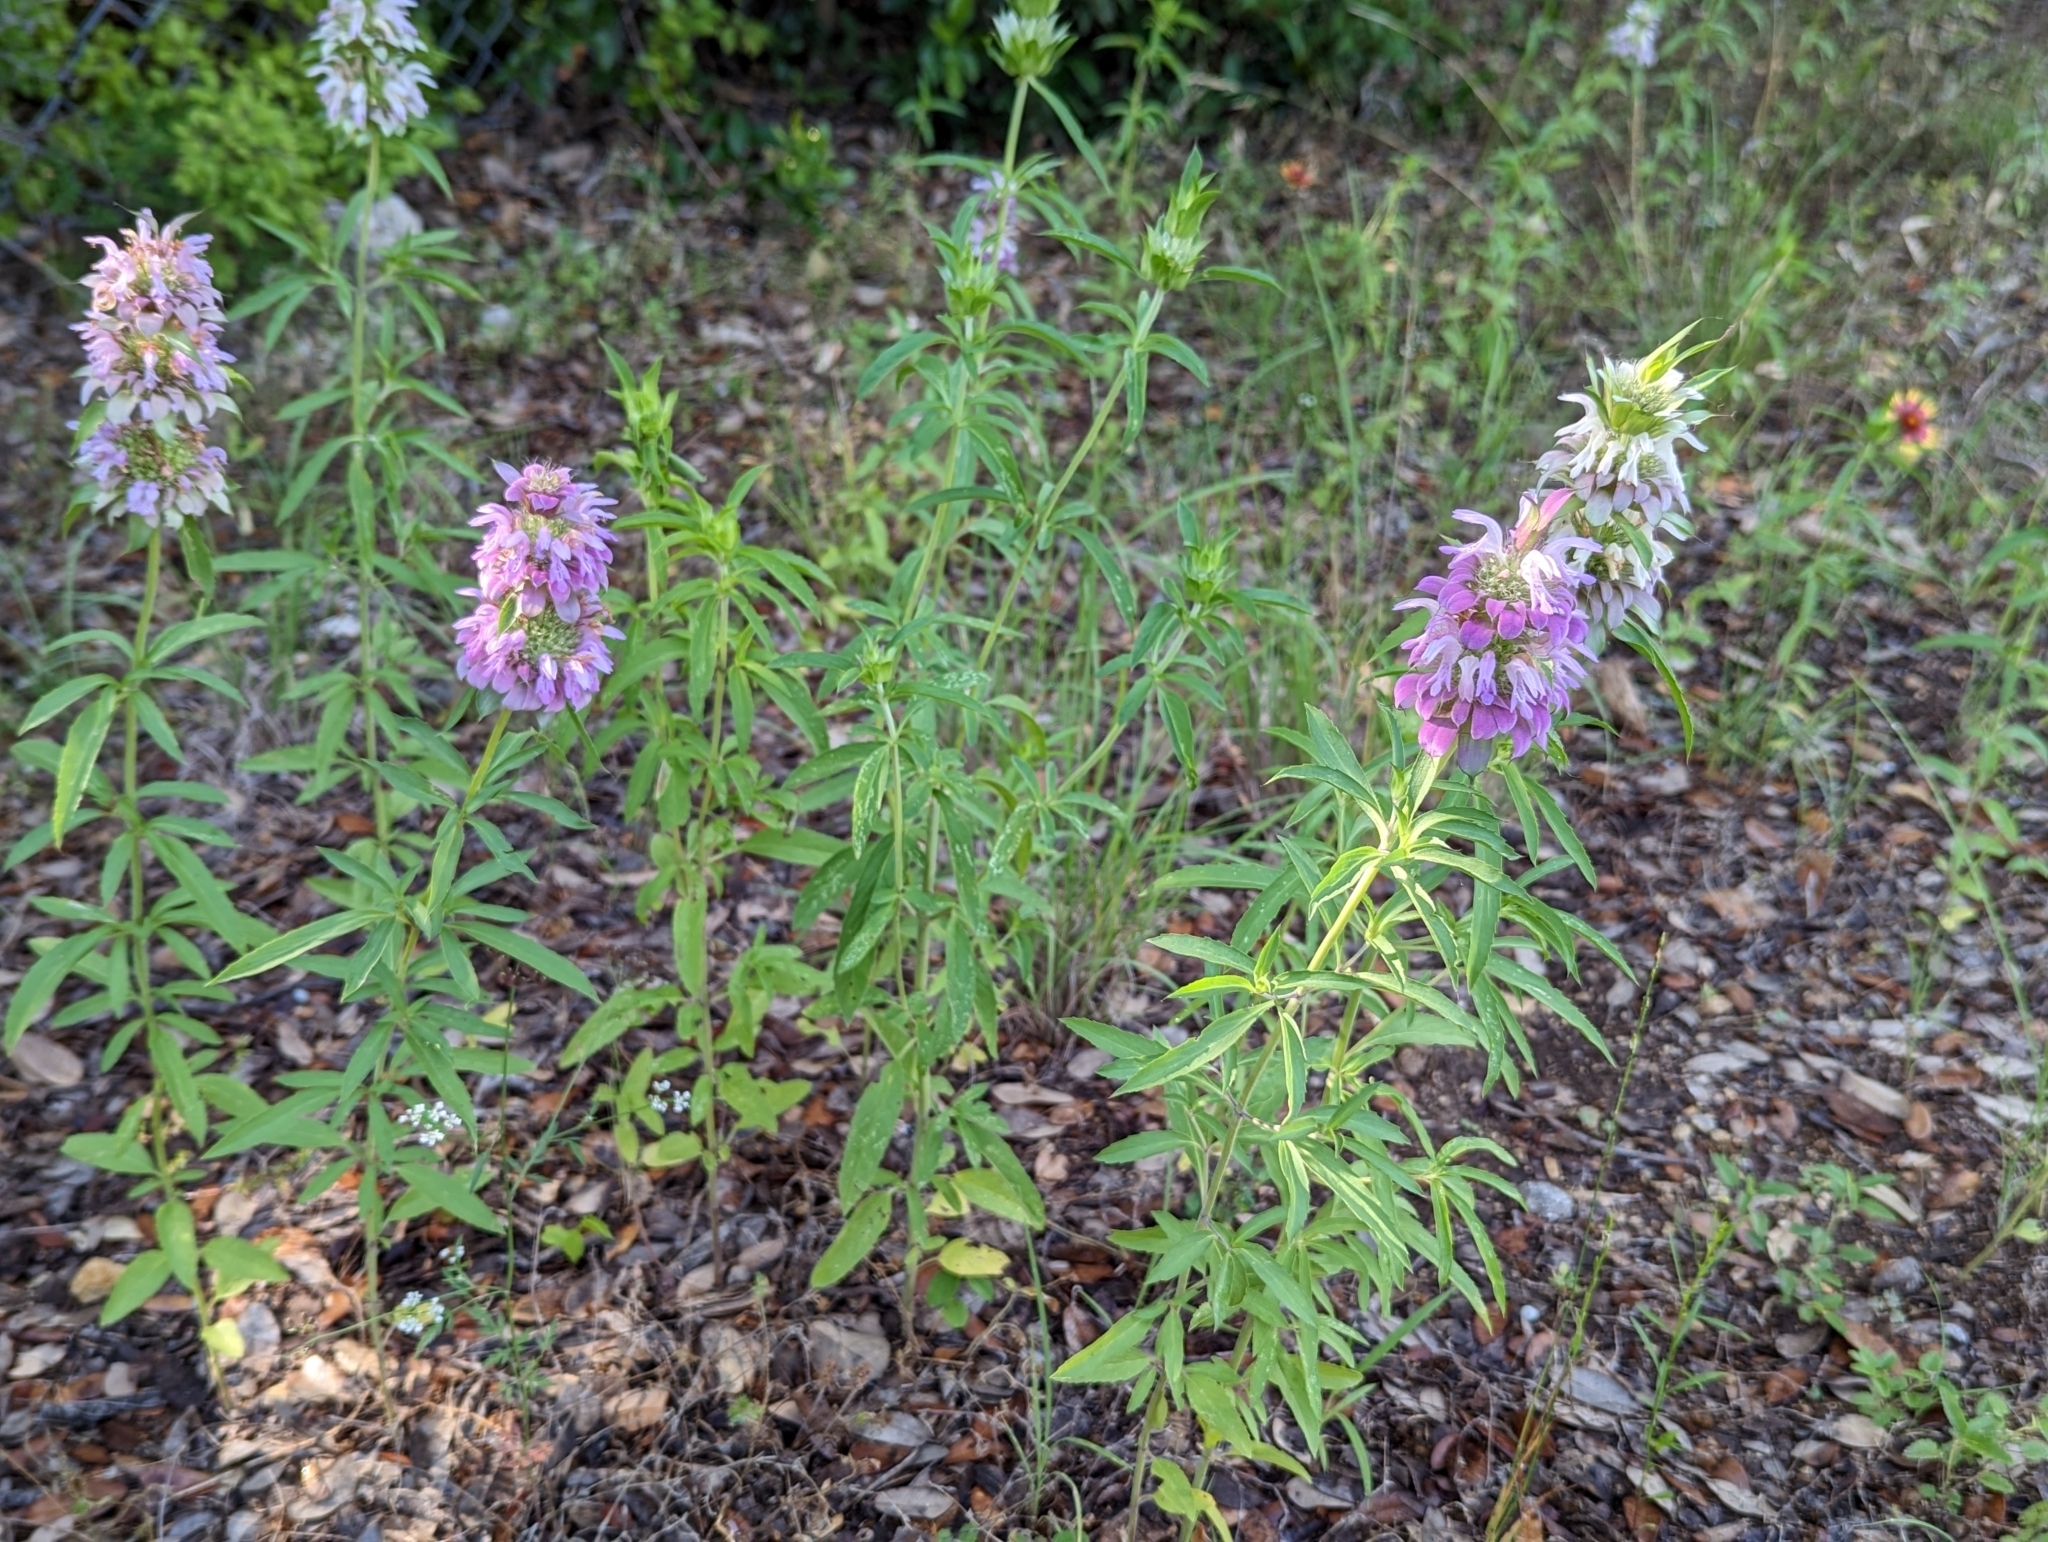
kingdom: Plantae
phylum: Tracheophyta
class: Magnoliopsida
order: Lamiales
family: Lamiaceae
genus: Monarda
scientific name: Monarda citriodora
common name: Lemon beebalm
